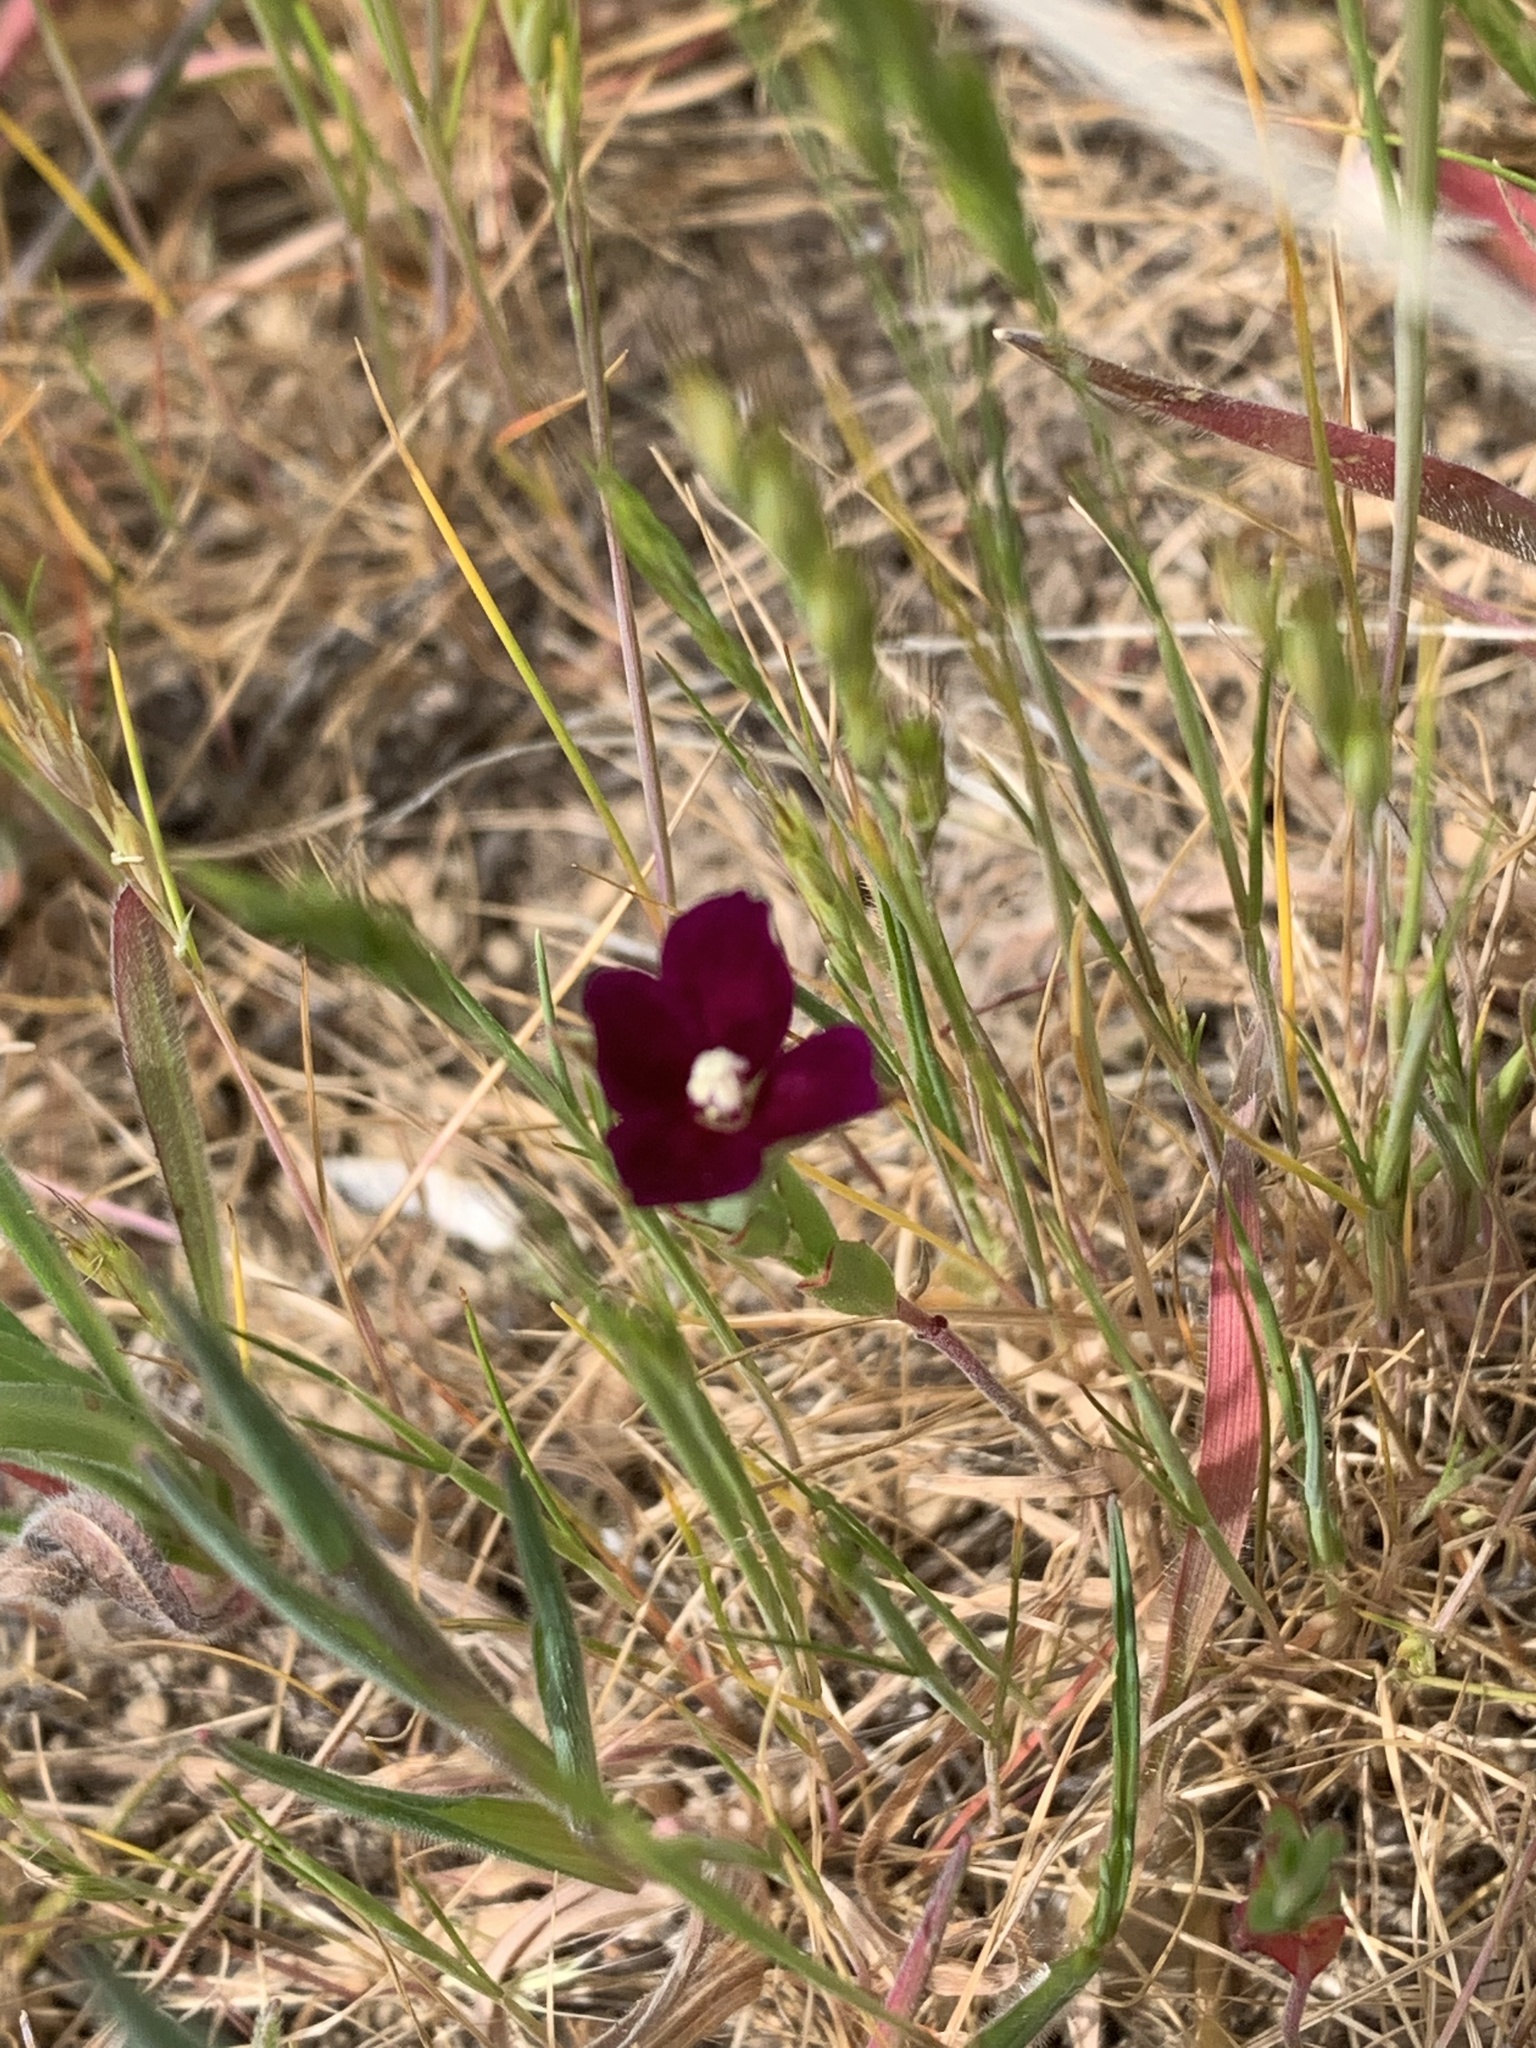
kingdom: Plantae
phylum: Tracheophyta
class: Magnoliopsida
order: Myrtales
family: Onagraceae
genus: Clarkia
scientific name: Clarkia purpurea
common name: Purple clarkia
